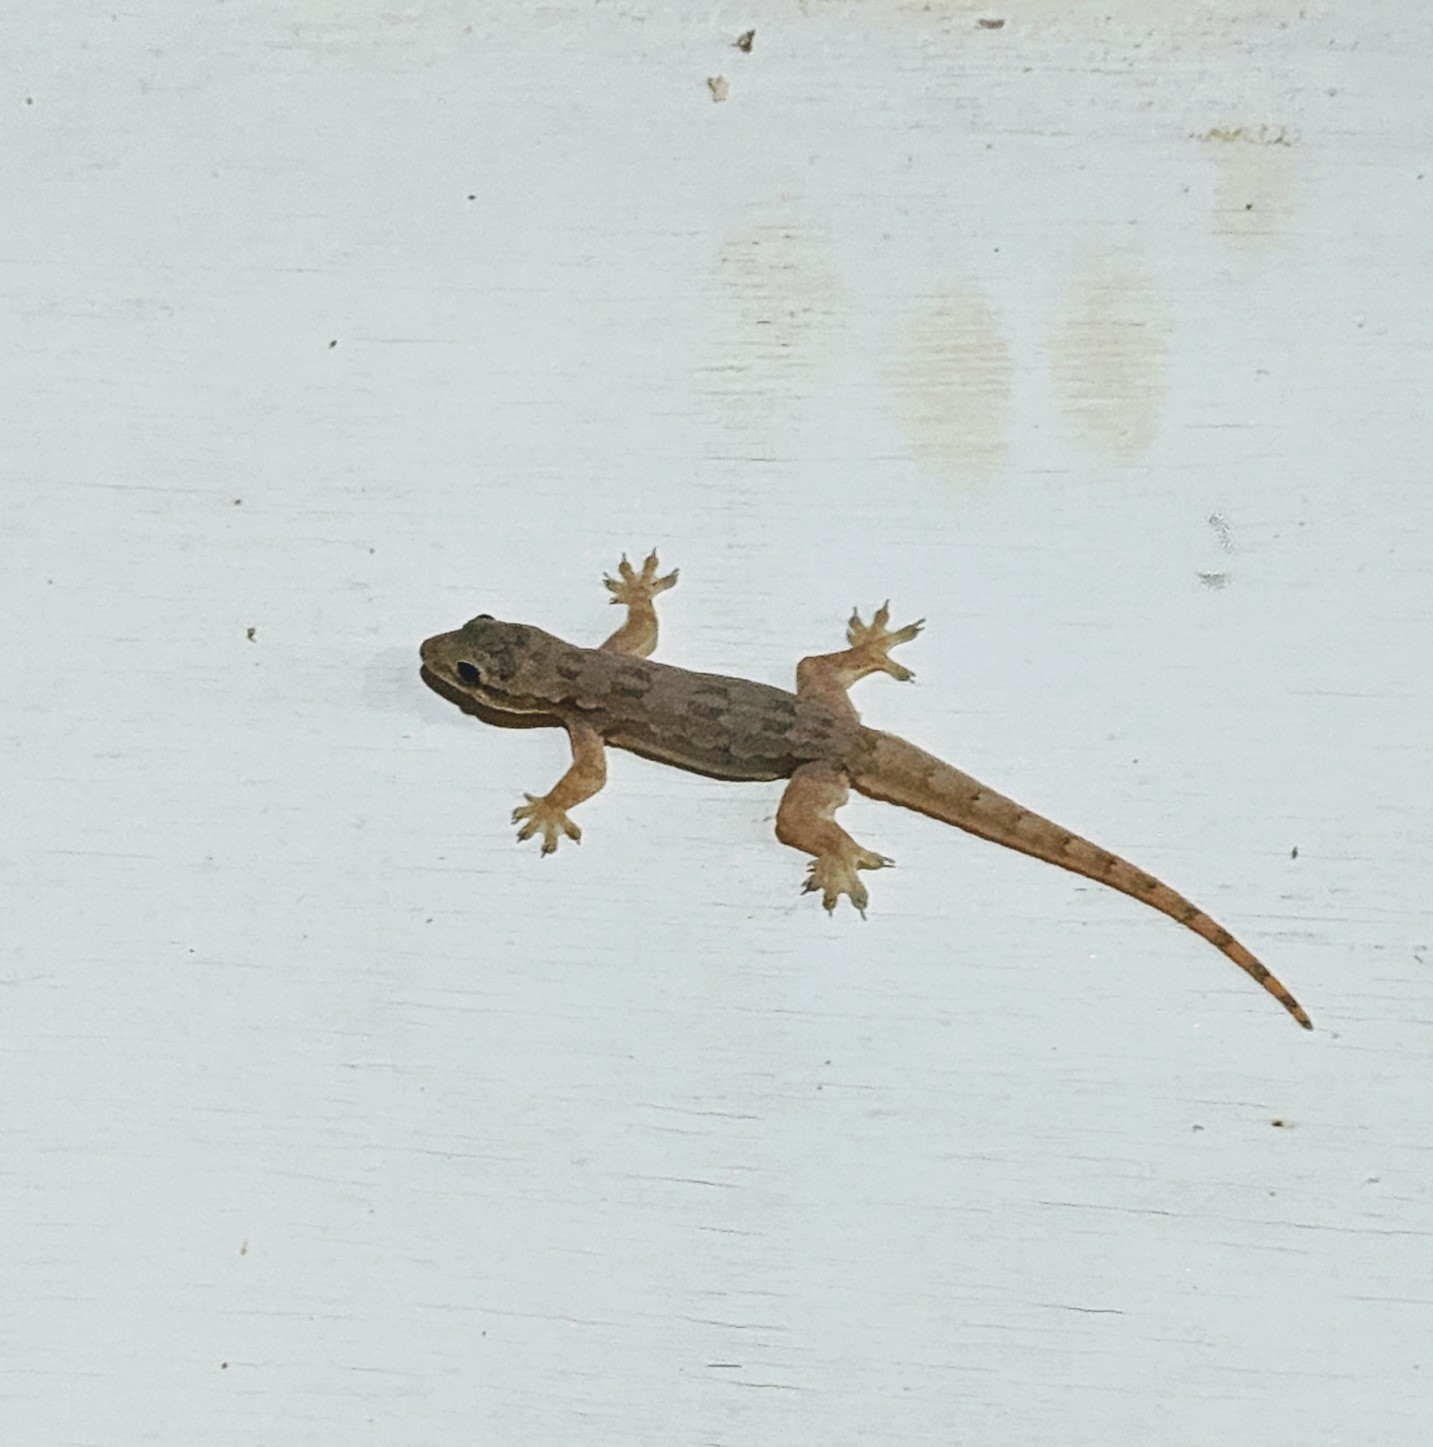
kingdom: Animalia
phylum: Chordata
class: Squamata
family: Gekkonidae
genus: Hemidactylus
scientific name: Hemidactylus platyurus
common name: Flat-tailed house gecko
